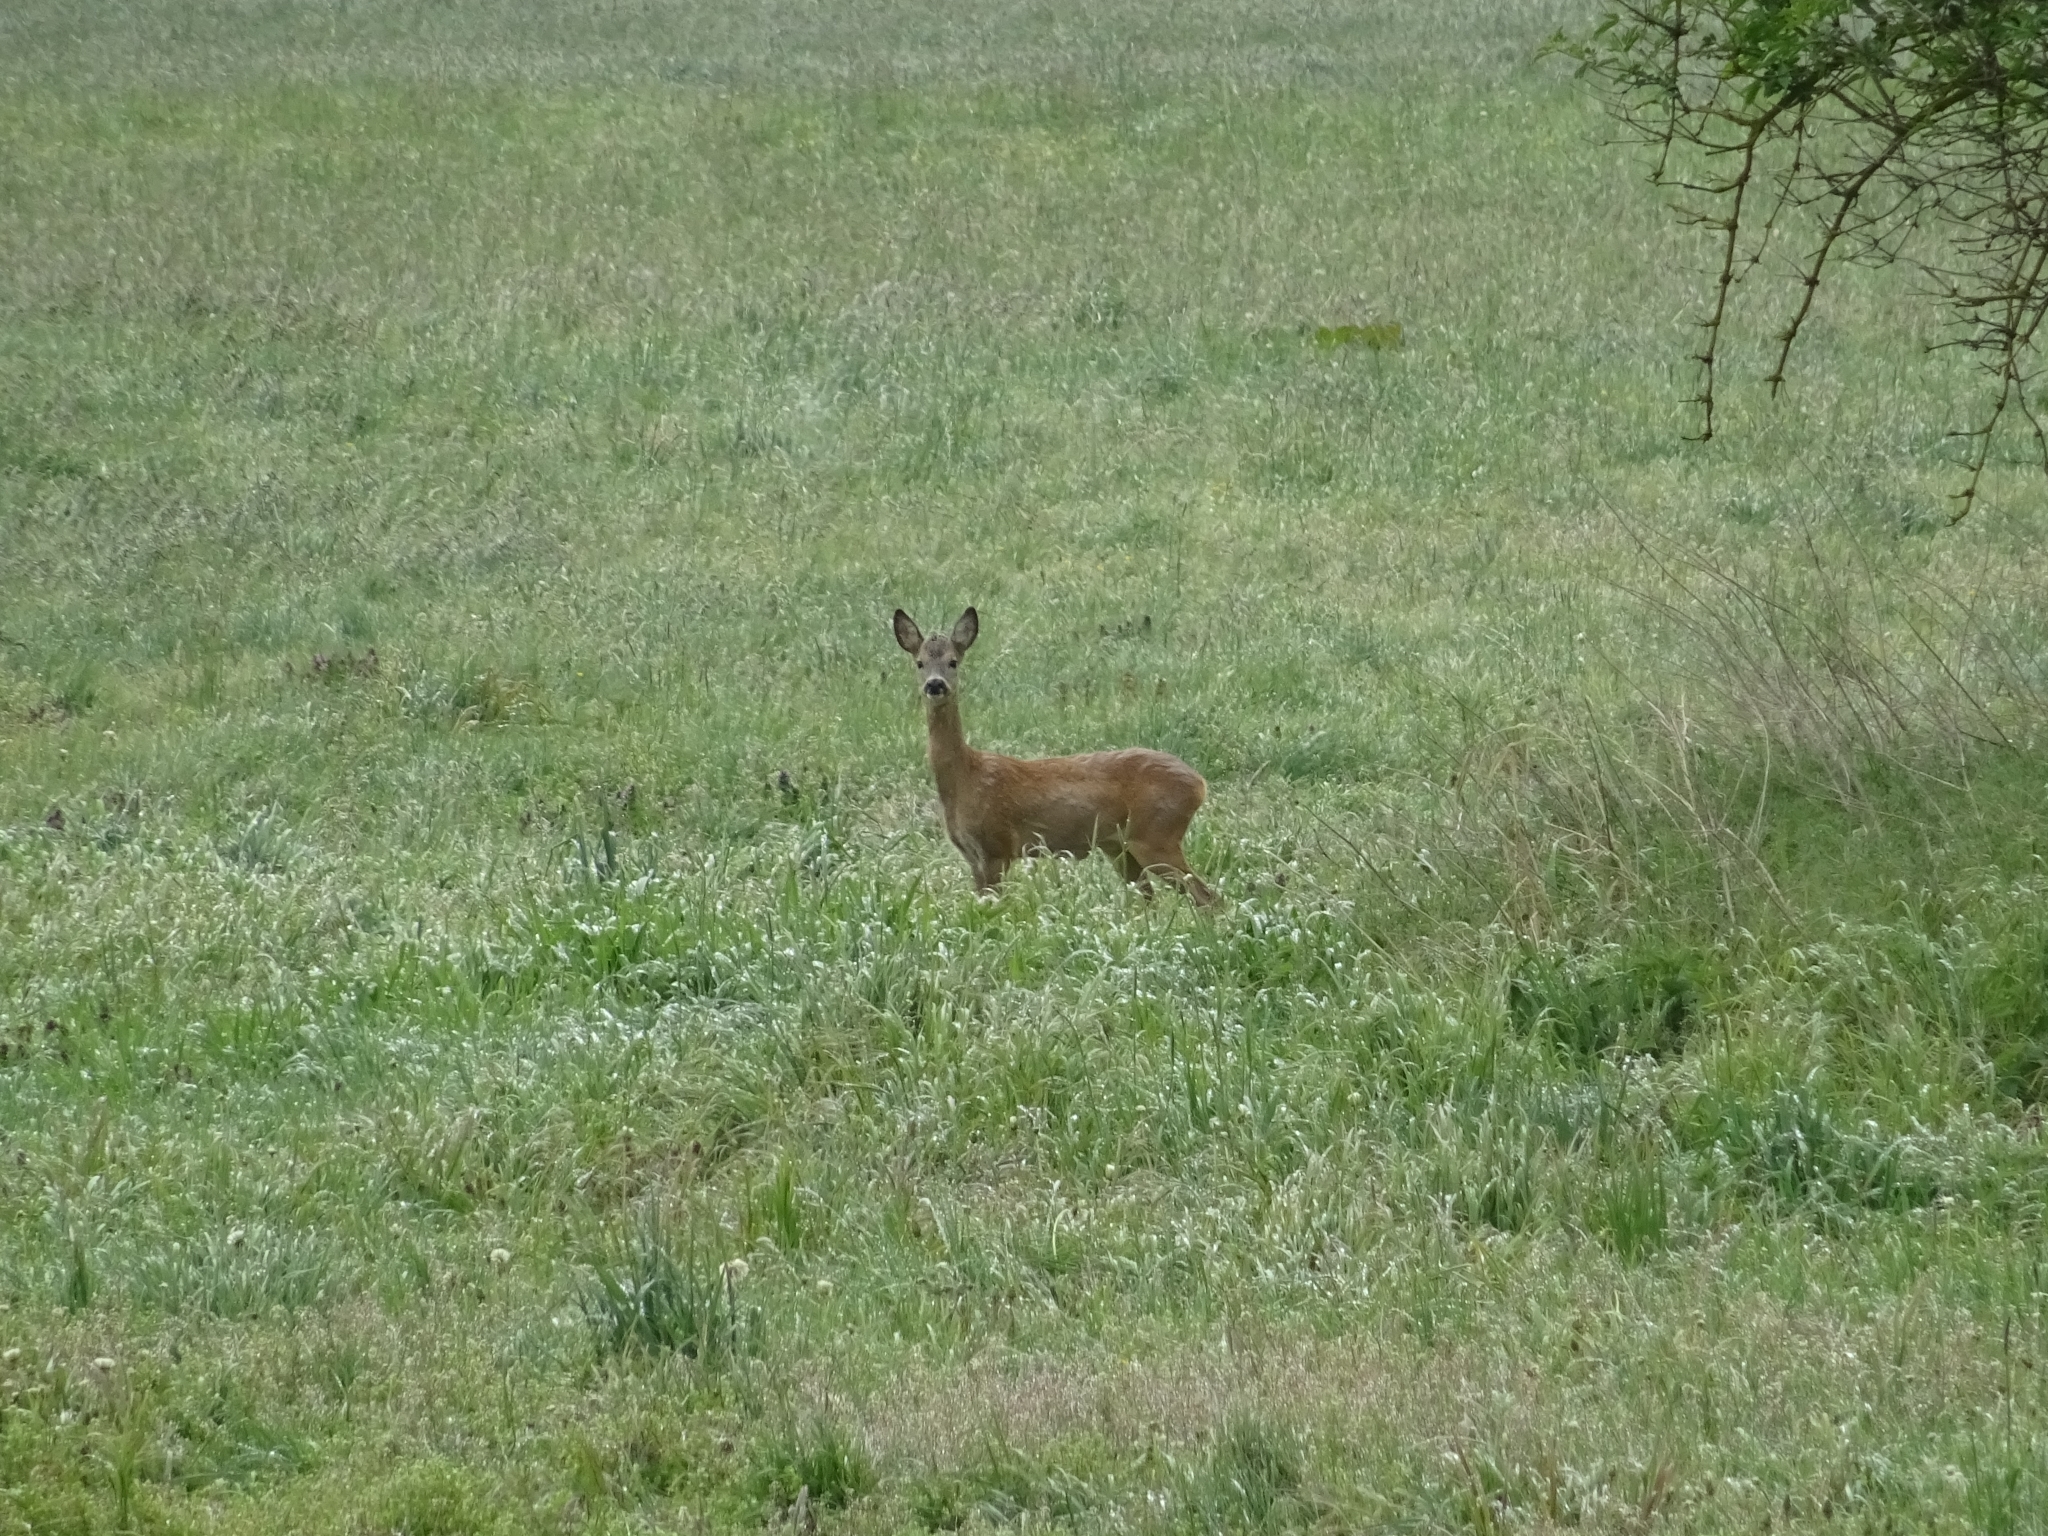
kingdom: Animalia
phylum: Chordata
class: Mammalia
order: Artiodactyla
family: Cervidae
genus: Capreolus
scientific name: Capreolus capreolus
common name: Western roe deer
